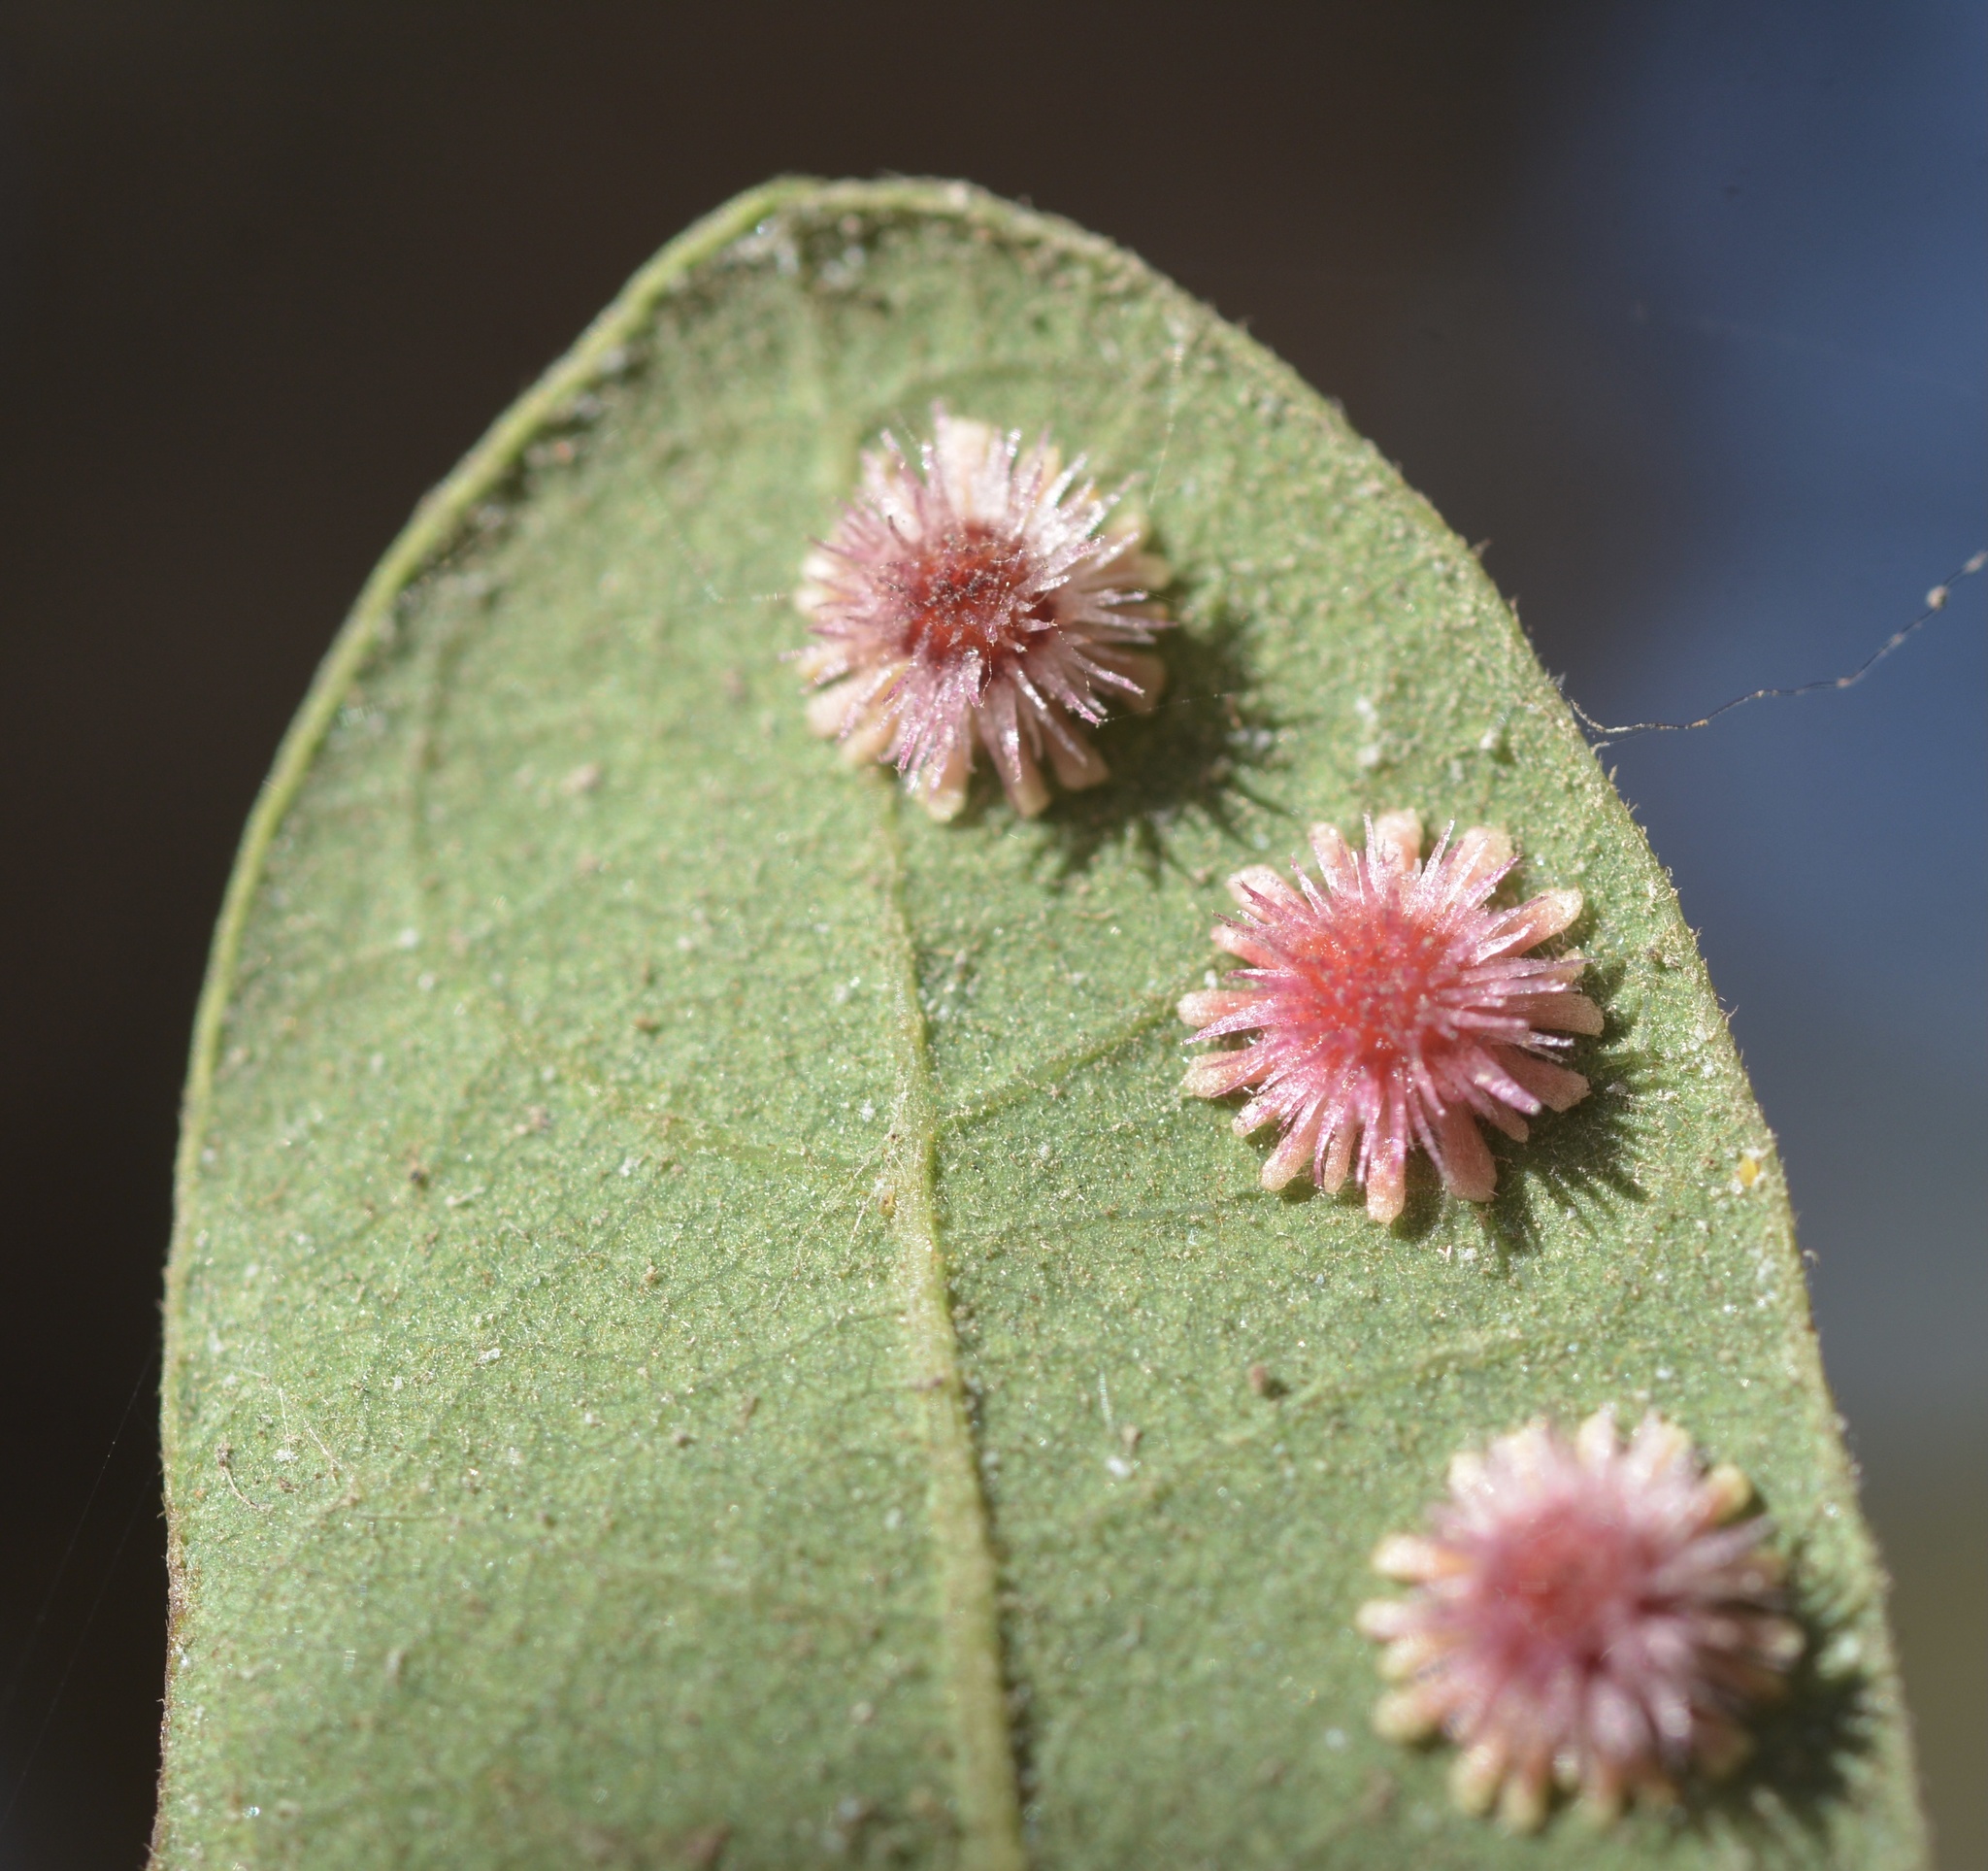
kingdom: Animalia
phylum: Arthropoda
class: Insecta
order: Hymenoptera
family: Cynipidae
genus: Andricus
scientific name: Andricus
